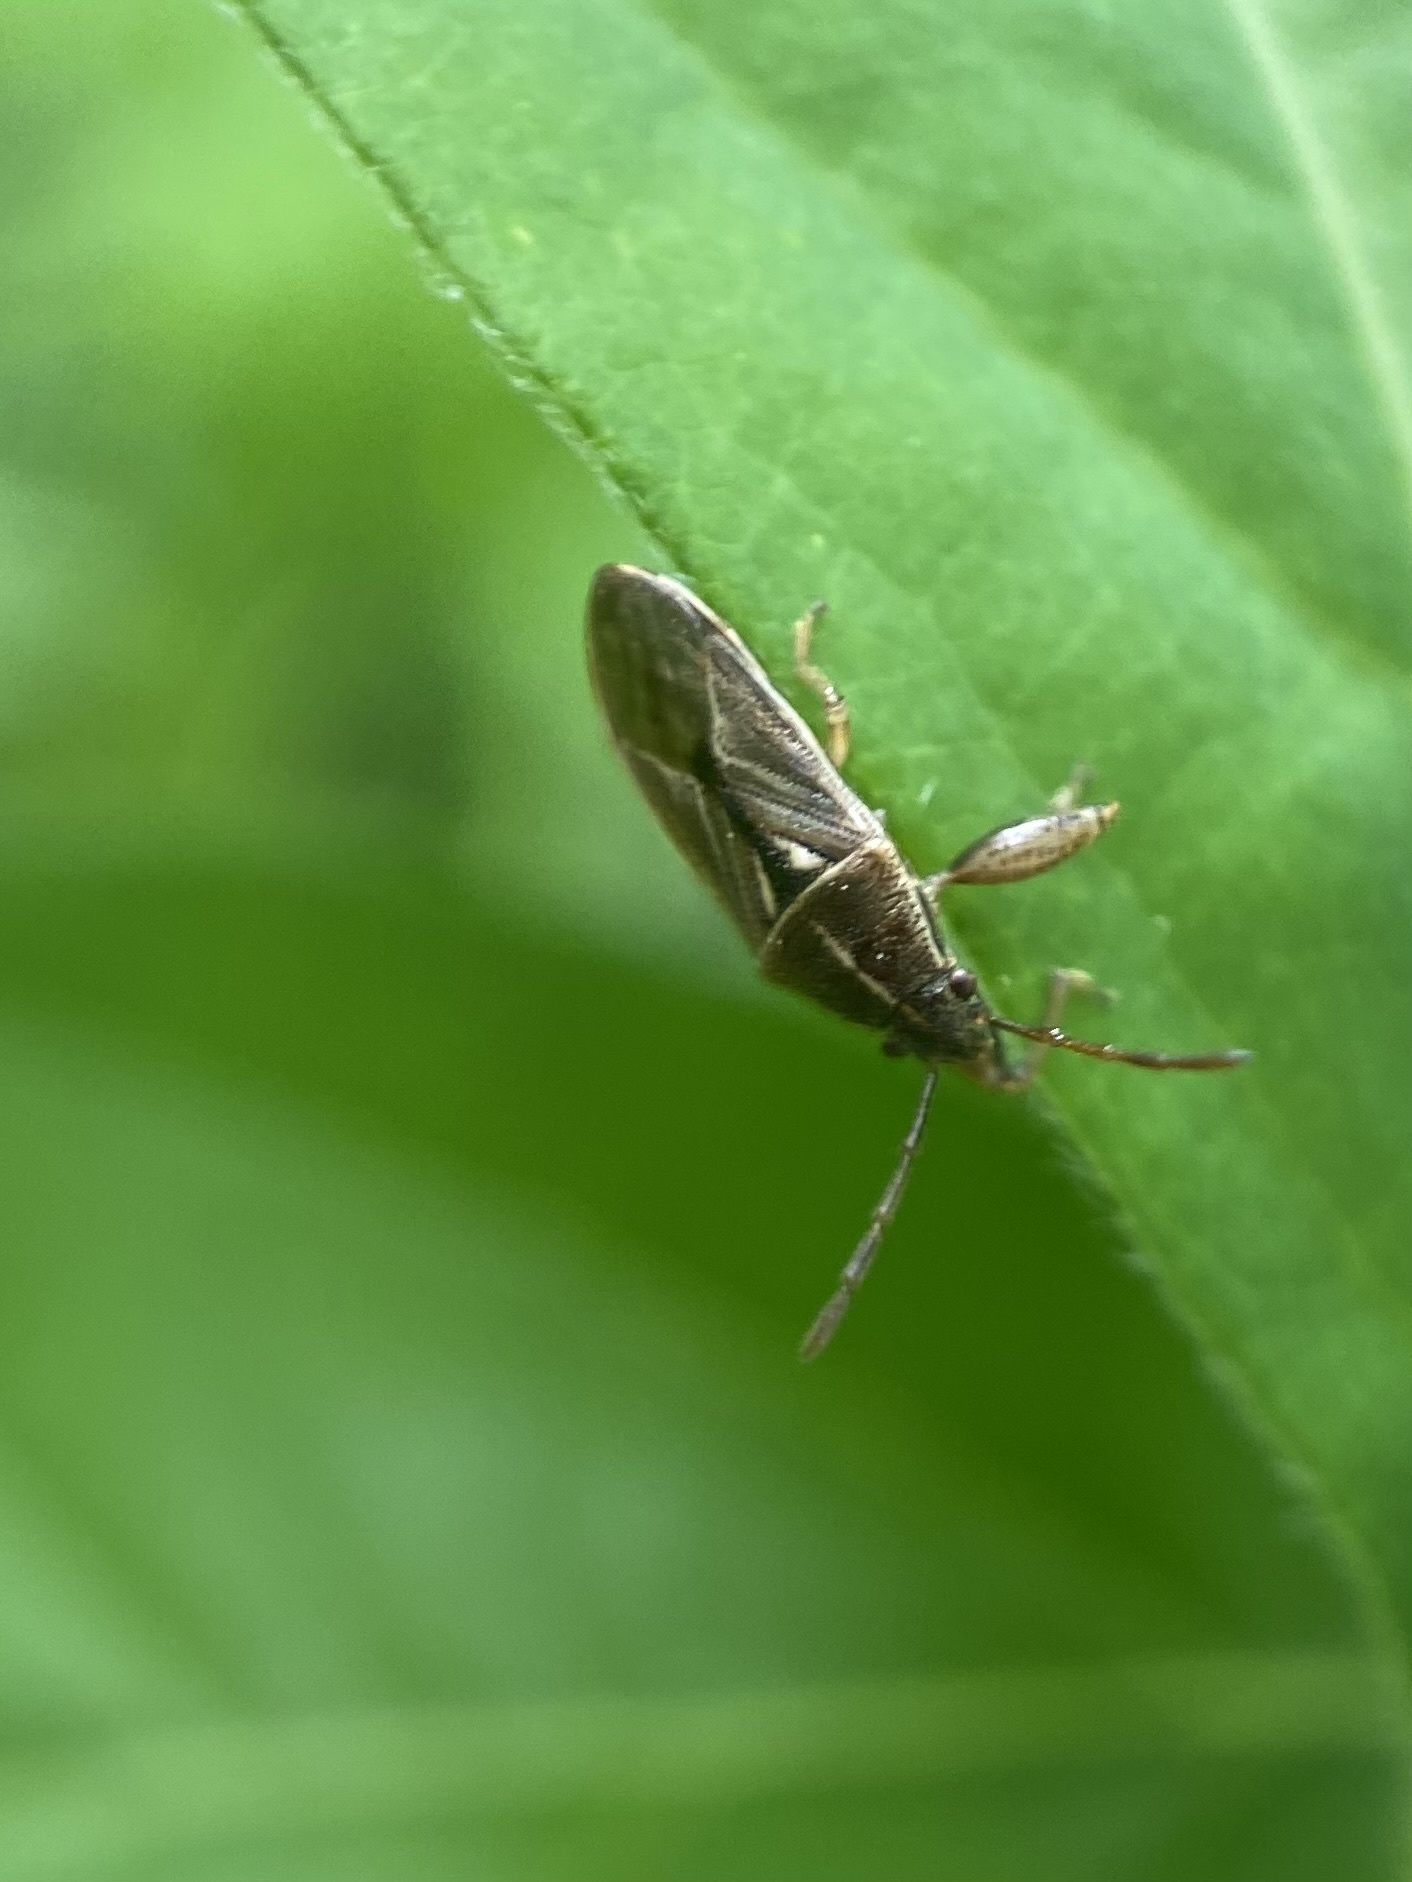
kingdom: Animalia
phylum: Arthropoda
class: Insecta
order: Hemiptera
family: Pachygronthidae
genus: Oedancala
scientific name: Oedancala dorsalis
